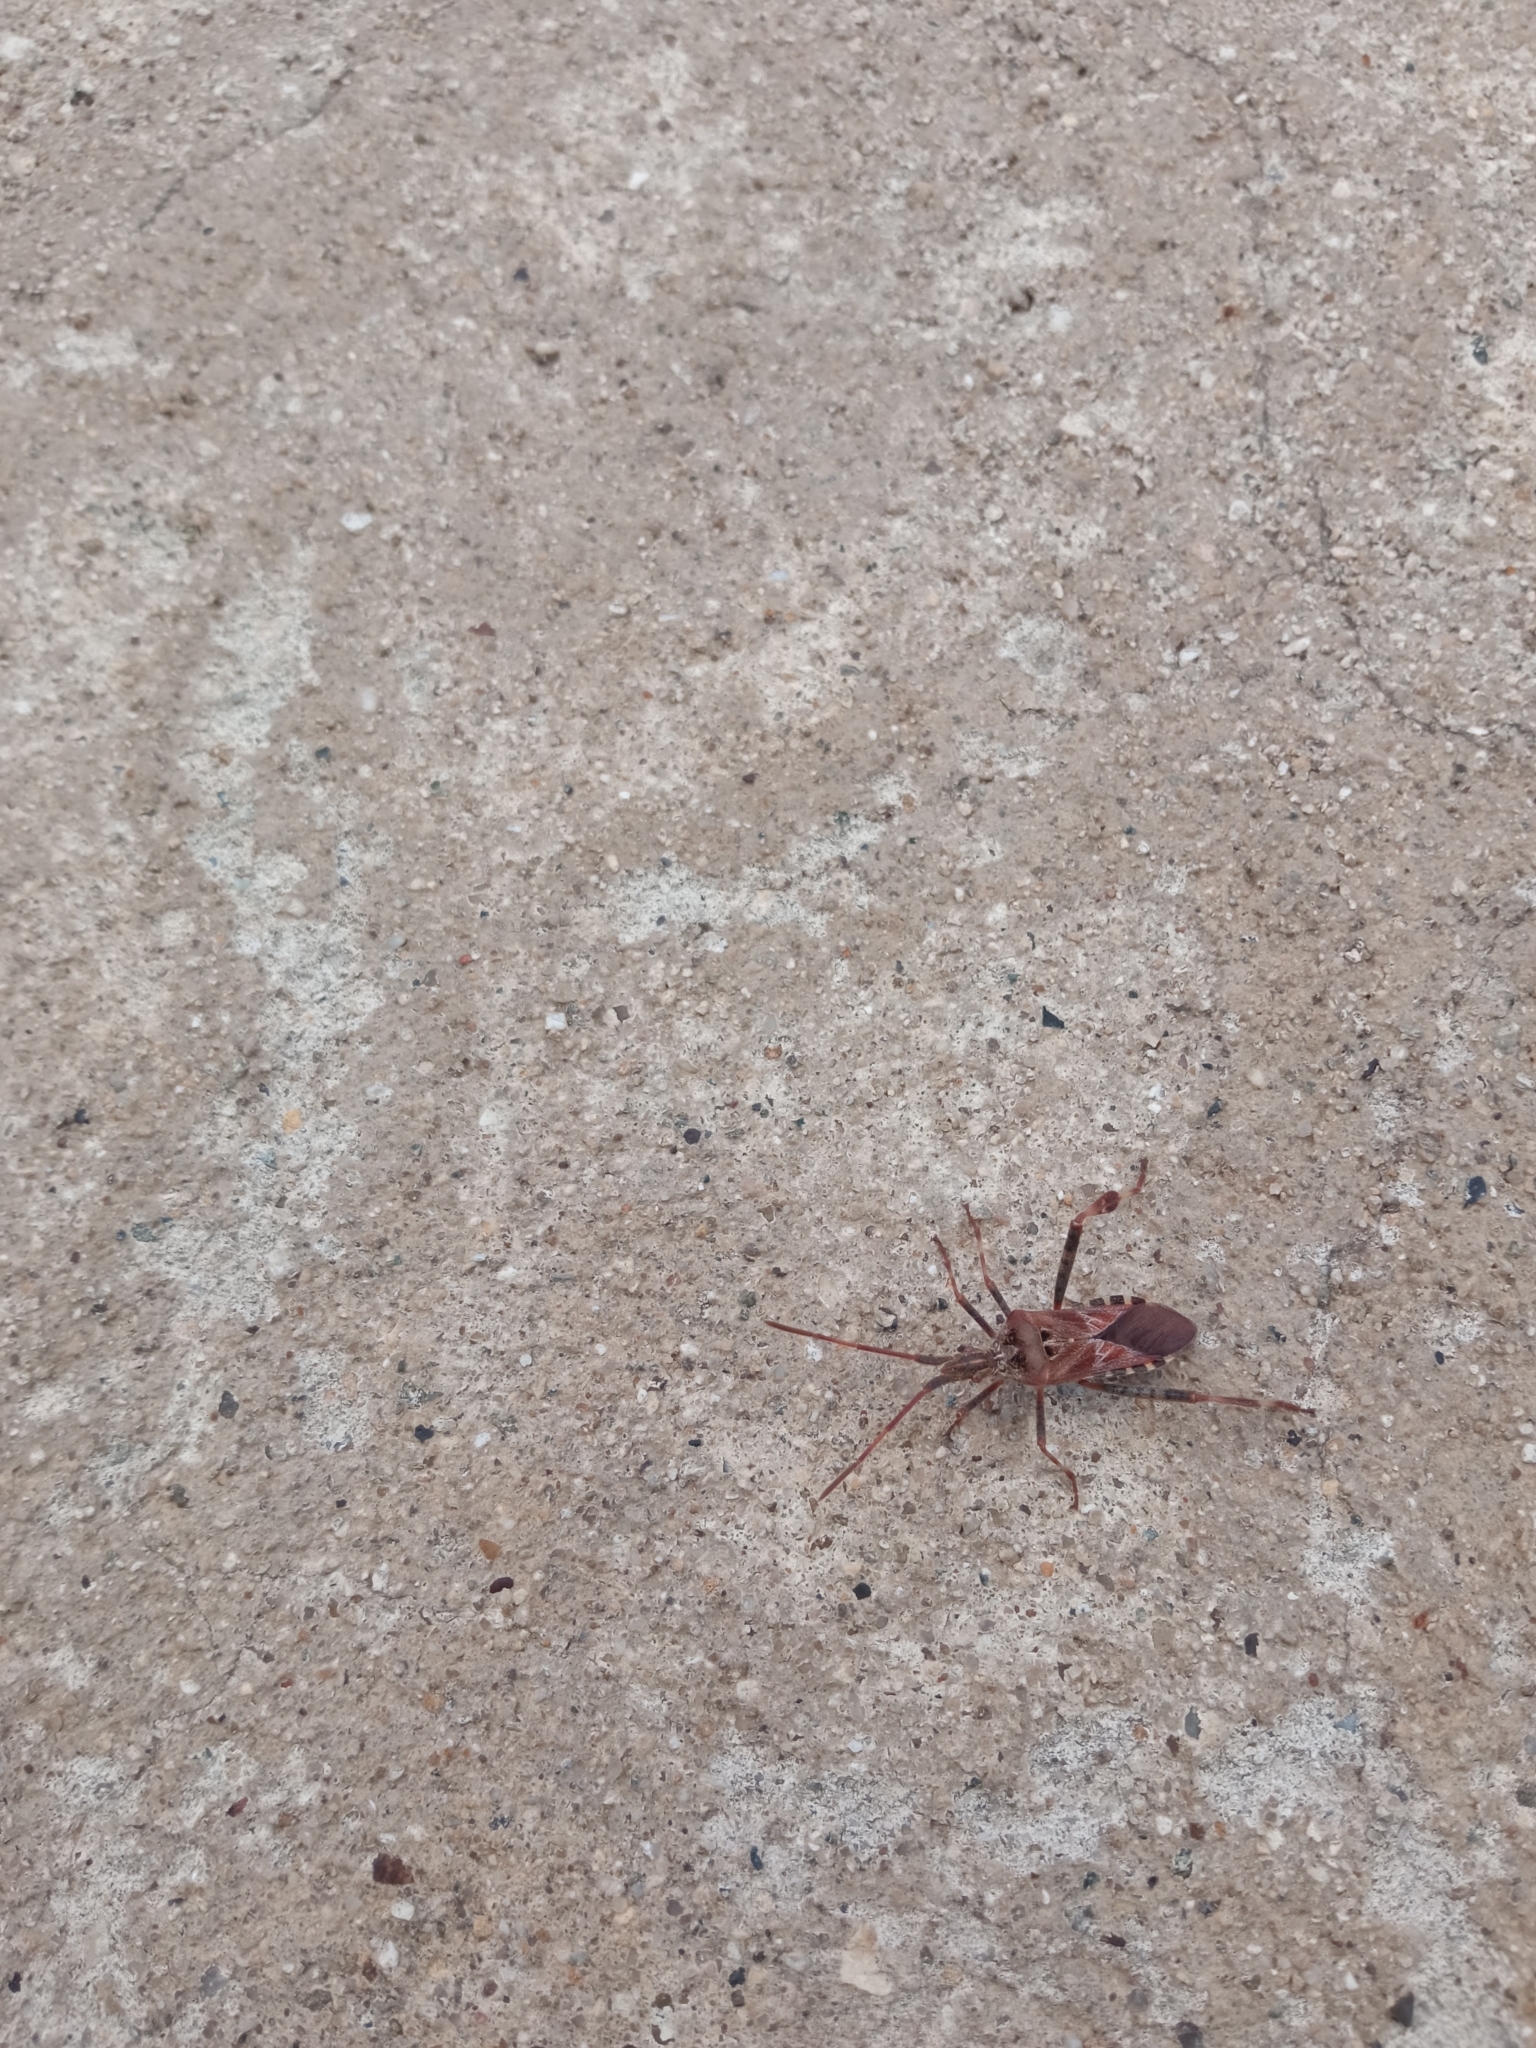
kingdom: Animalia
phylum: Arthropoda
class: Insecta
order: Hemiptera
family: Coreidae
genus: Leptoglossus
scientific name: Leptoglossus occidentalis
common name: Western conifer-seed bug
